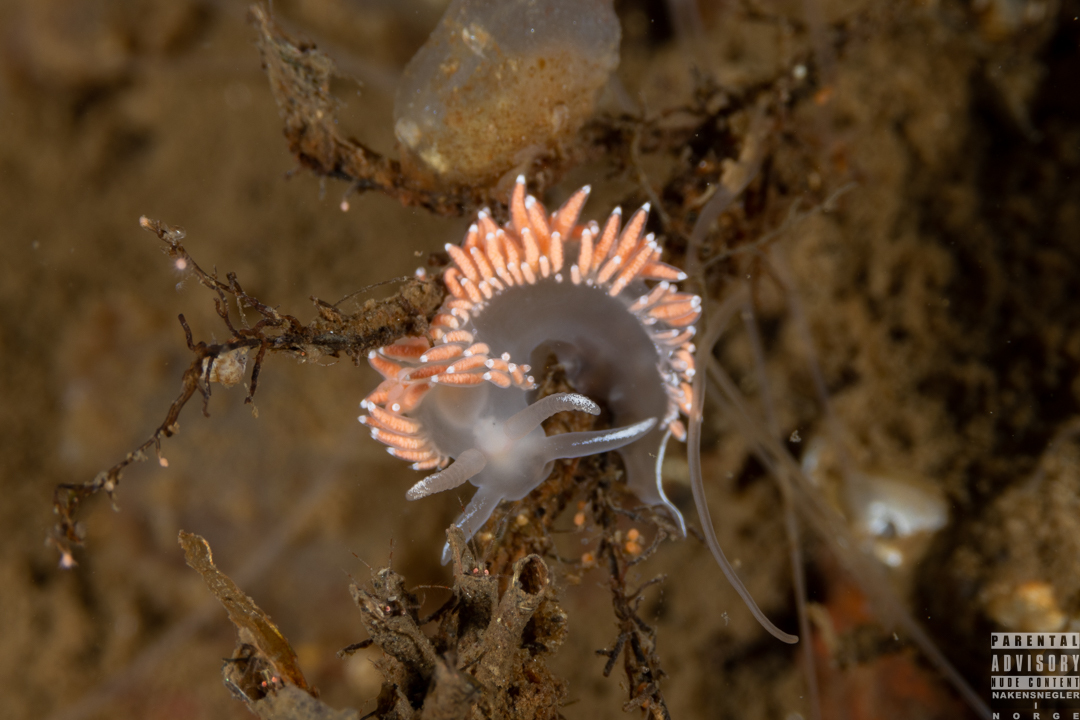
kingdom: Animalia
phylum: Mollusca
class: Gastropoda
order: Nudibranchia
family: Coryphellidae
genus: Coryphella
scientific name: Coryphella verrucosa
